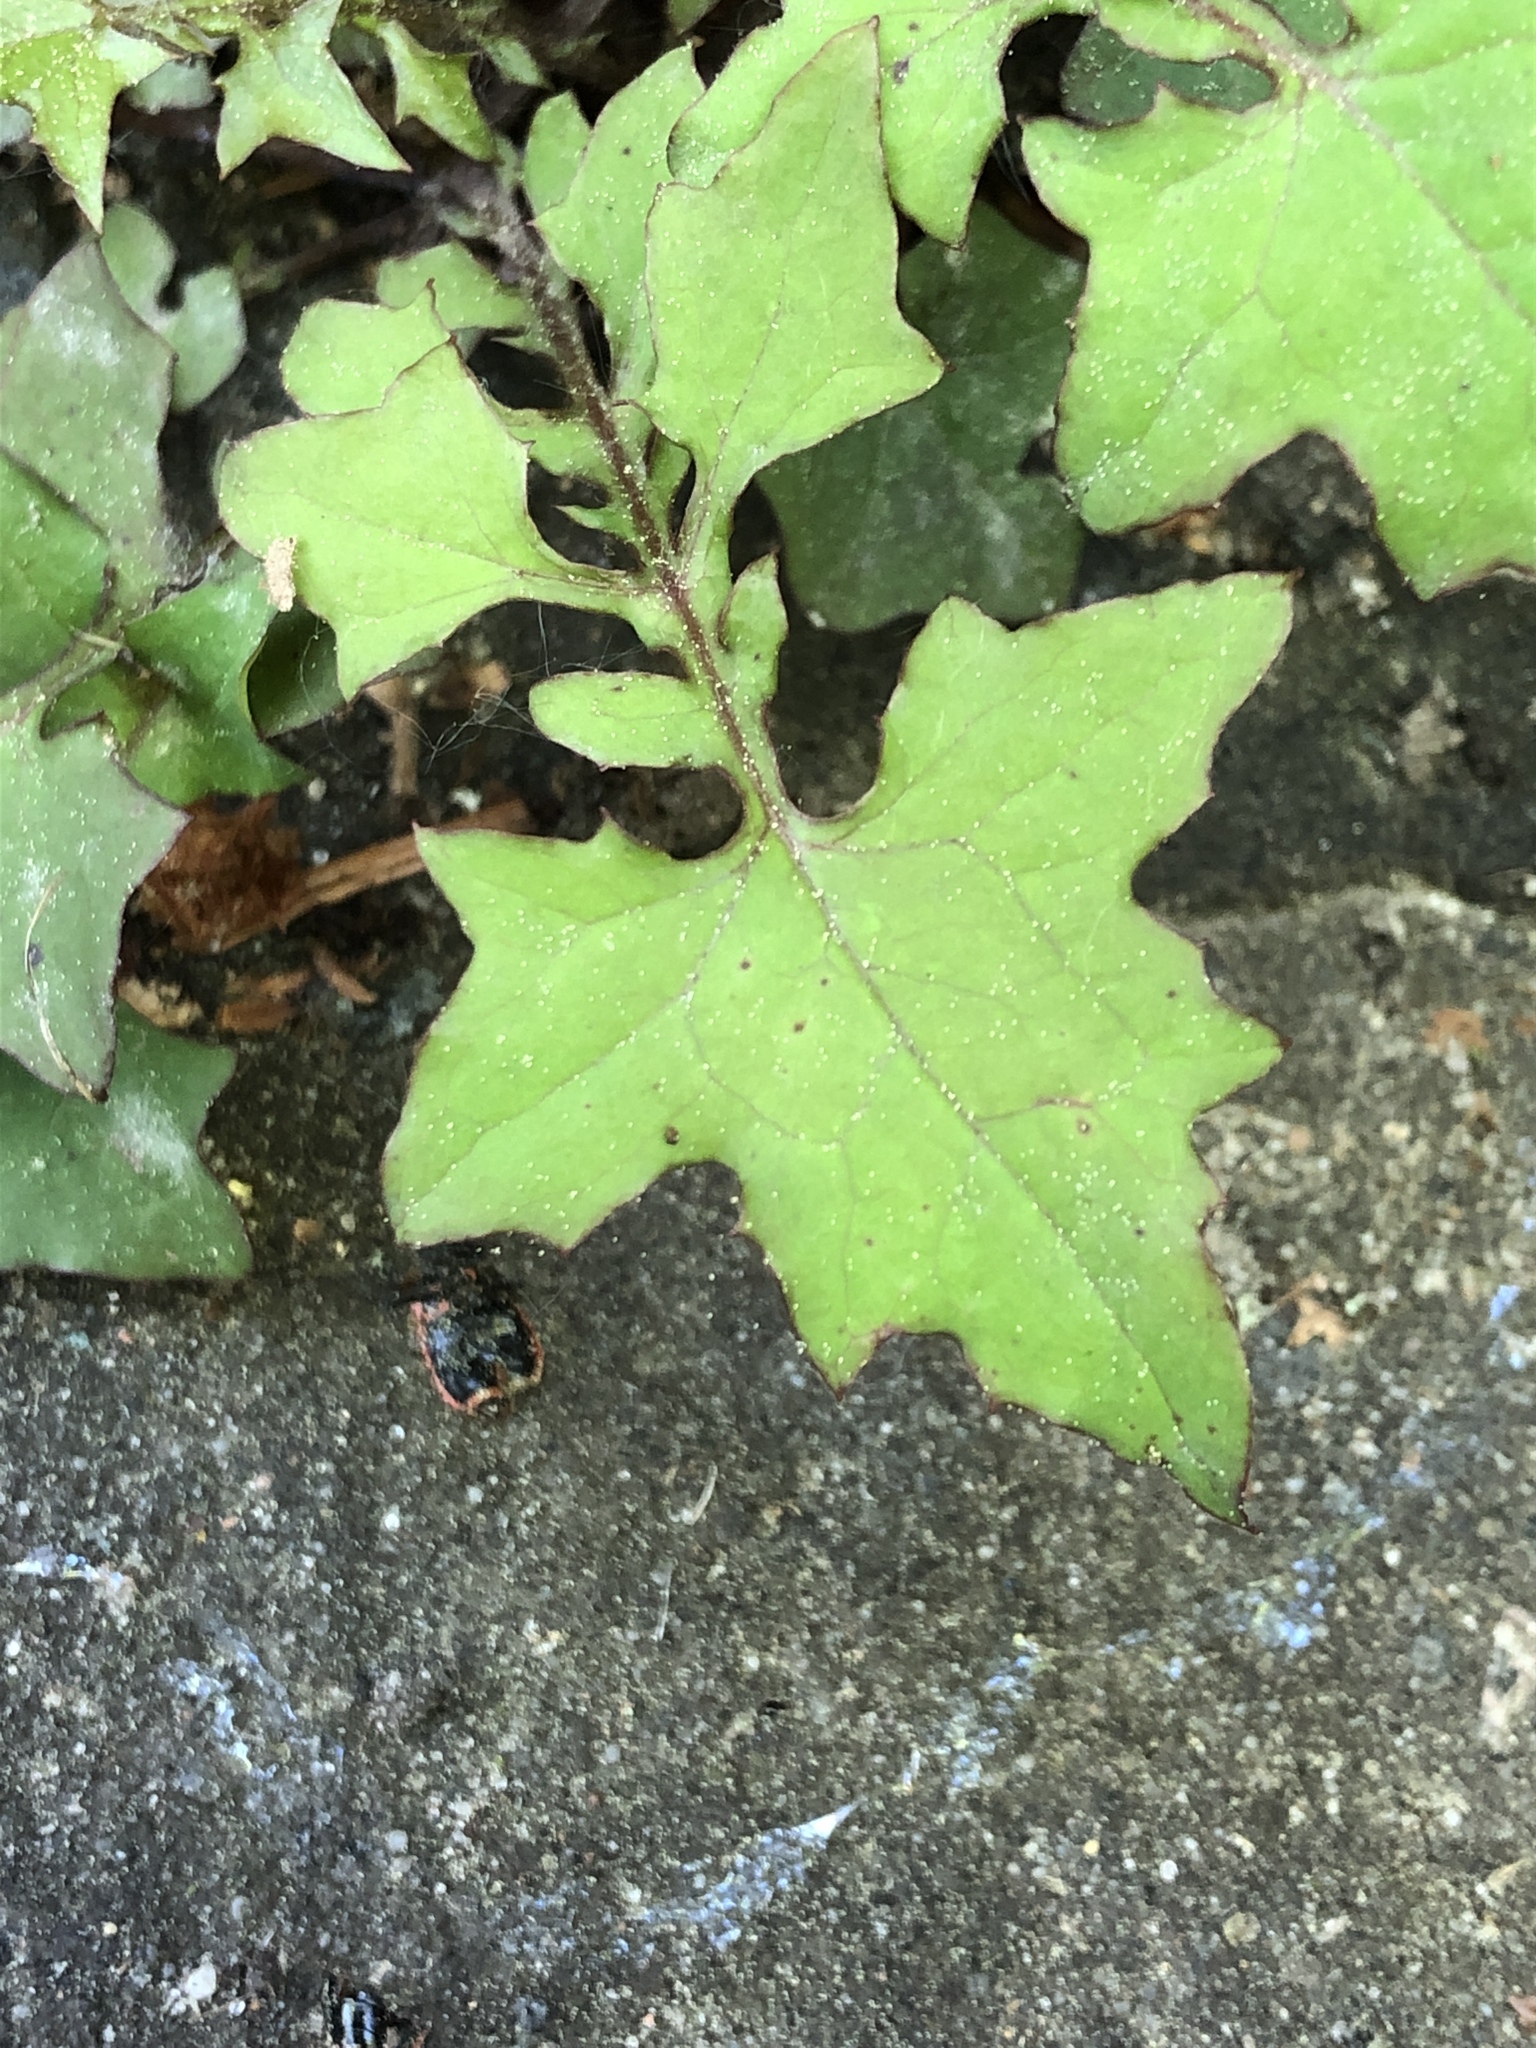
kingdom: Plantae
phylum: Tracheophyta
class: Magnoliopsida
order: Asterales
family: Asteraceae
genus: Mycelis
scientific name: Mycelis muralis
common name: Wall lettuce
